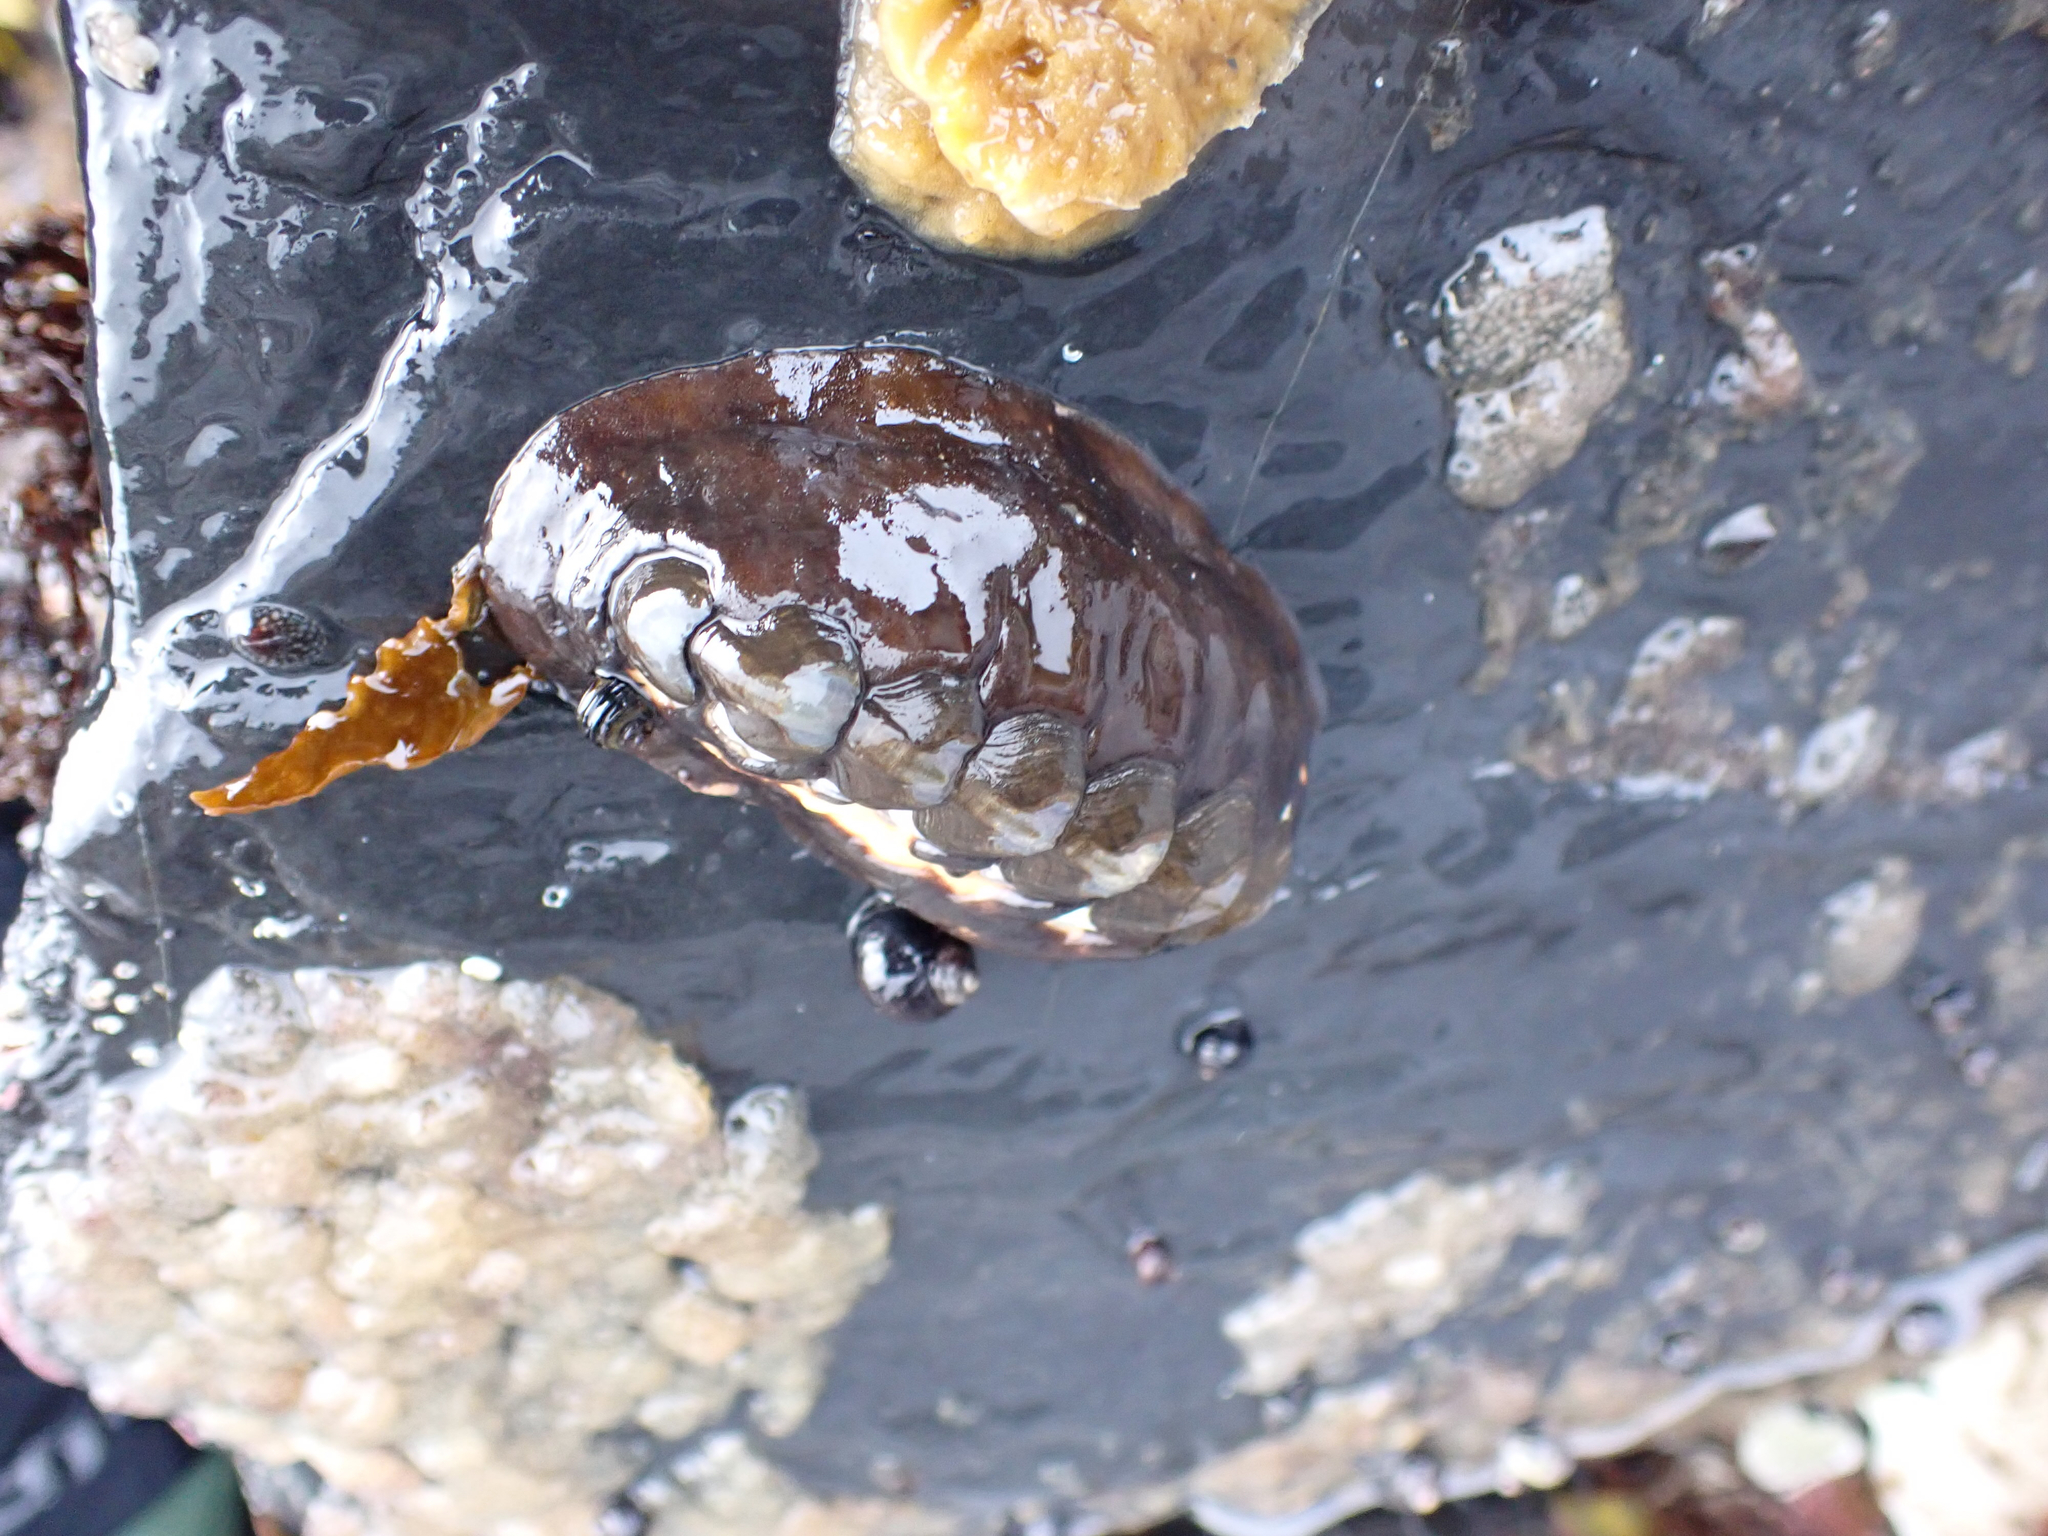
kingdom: Animalia
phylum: Mollusca
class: Polyplacophora
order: Chitonida
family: Mopaliidae
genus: Katharina
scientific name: Katharina tunicata
